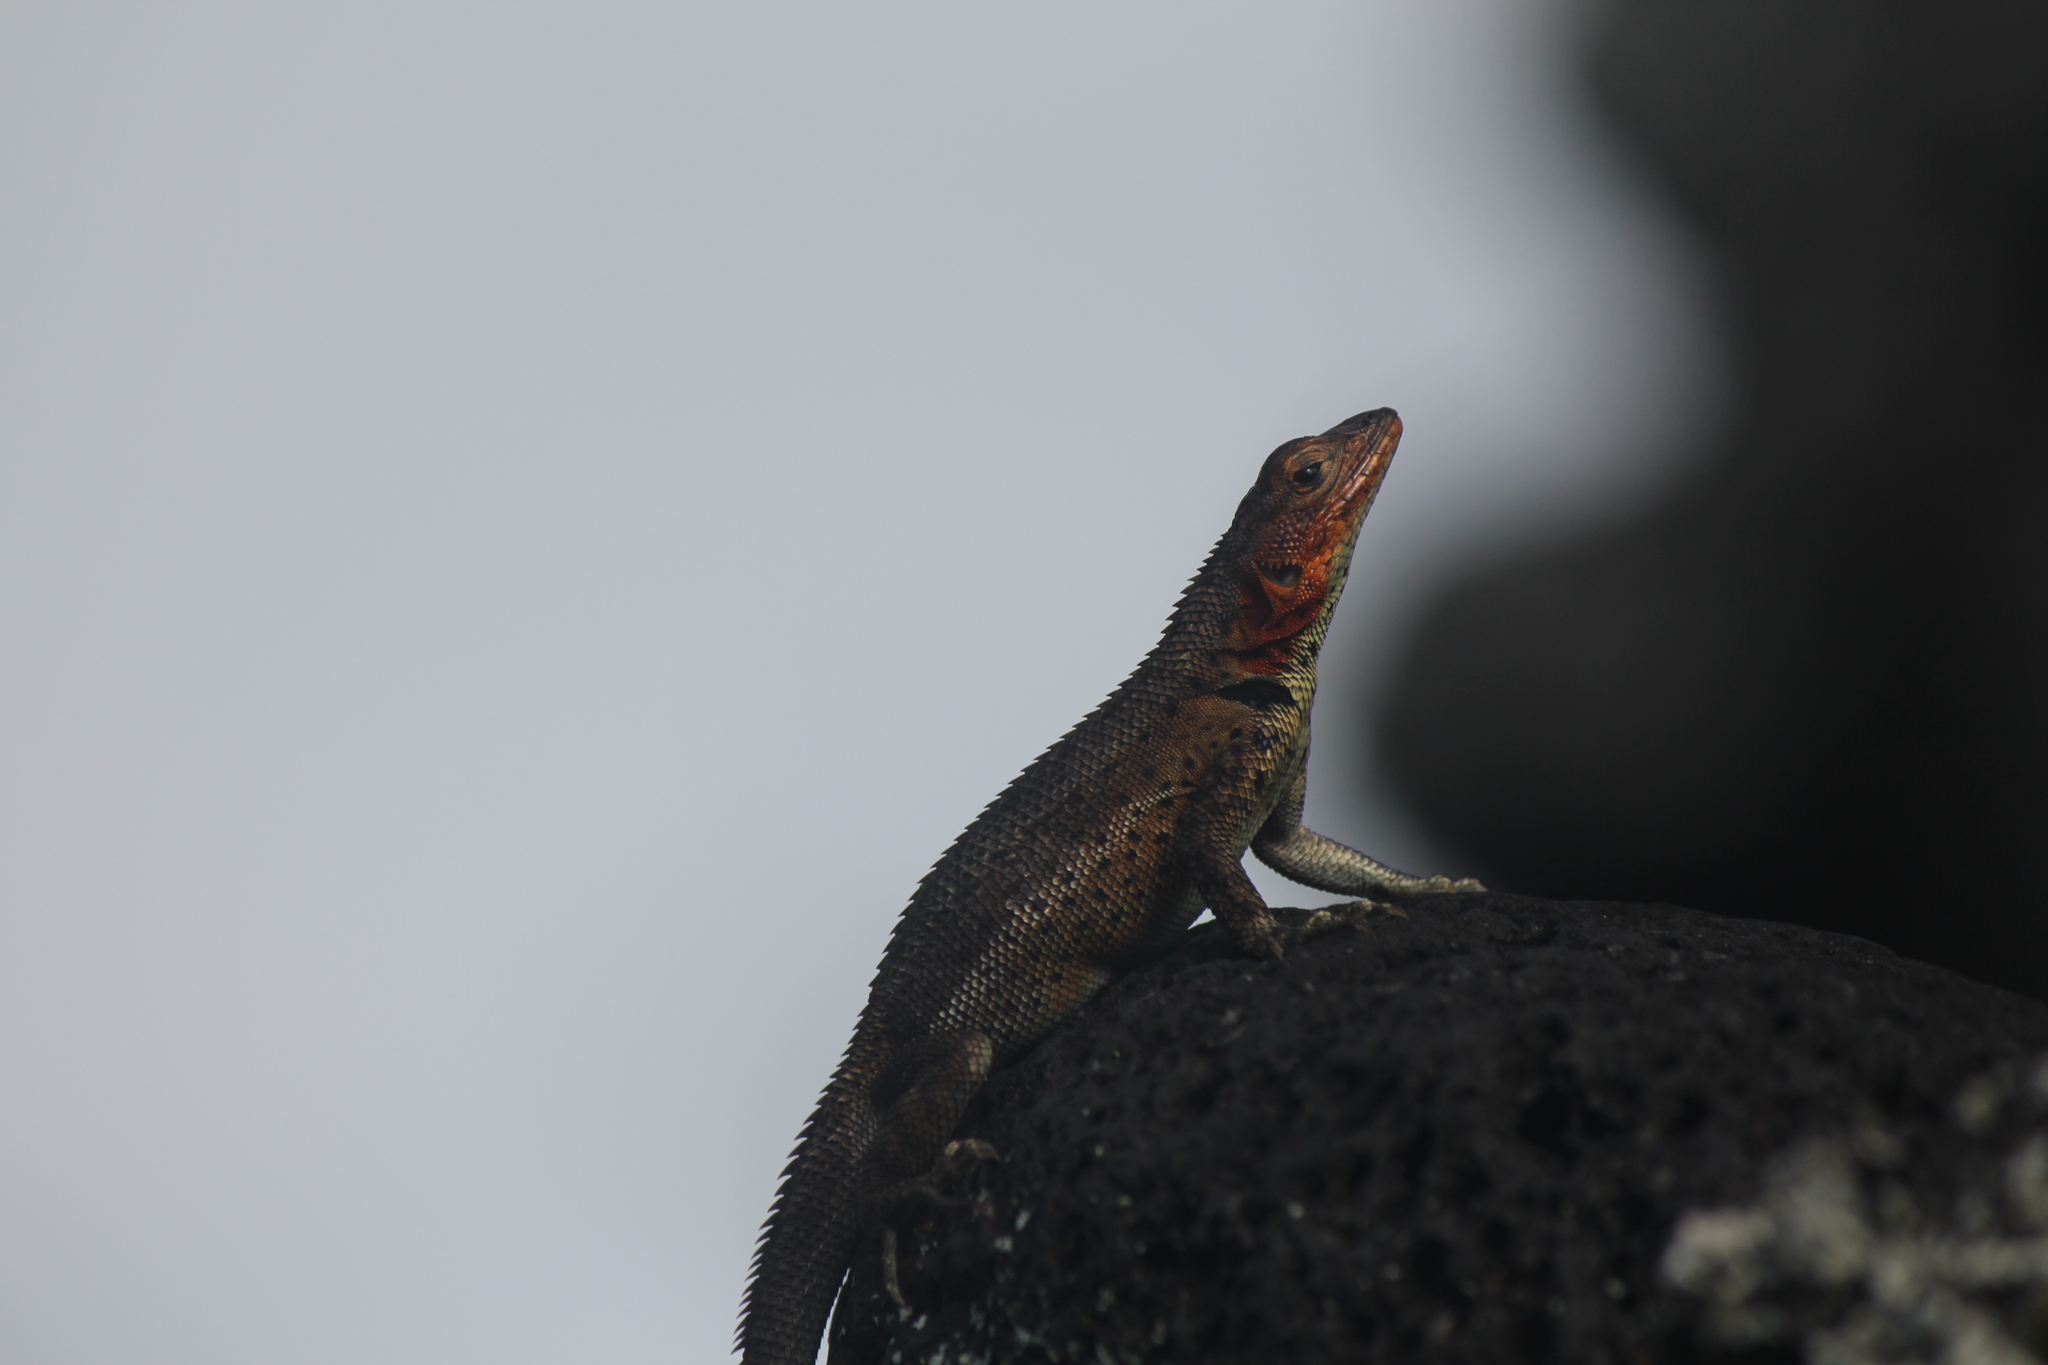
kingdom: Animalia
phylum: Chordata
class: Squamata
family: Tropiduridae
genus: Microlophus
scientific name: Microlophus albemarlensis
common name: Galapagos lava lizard
